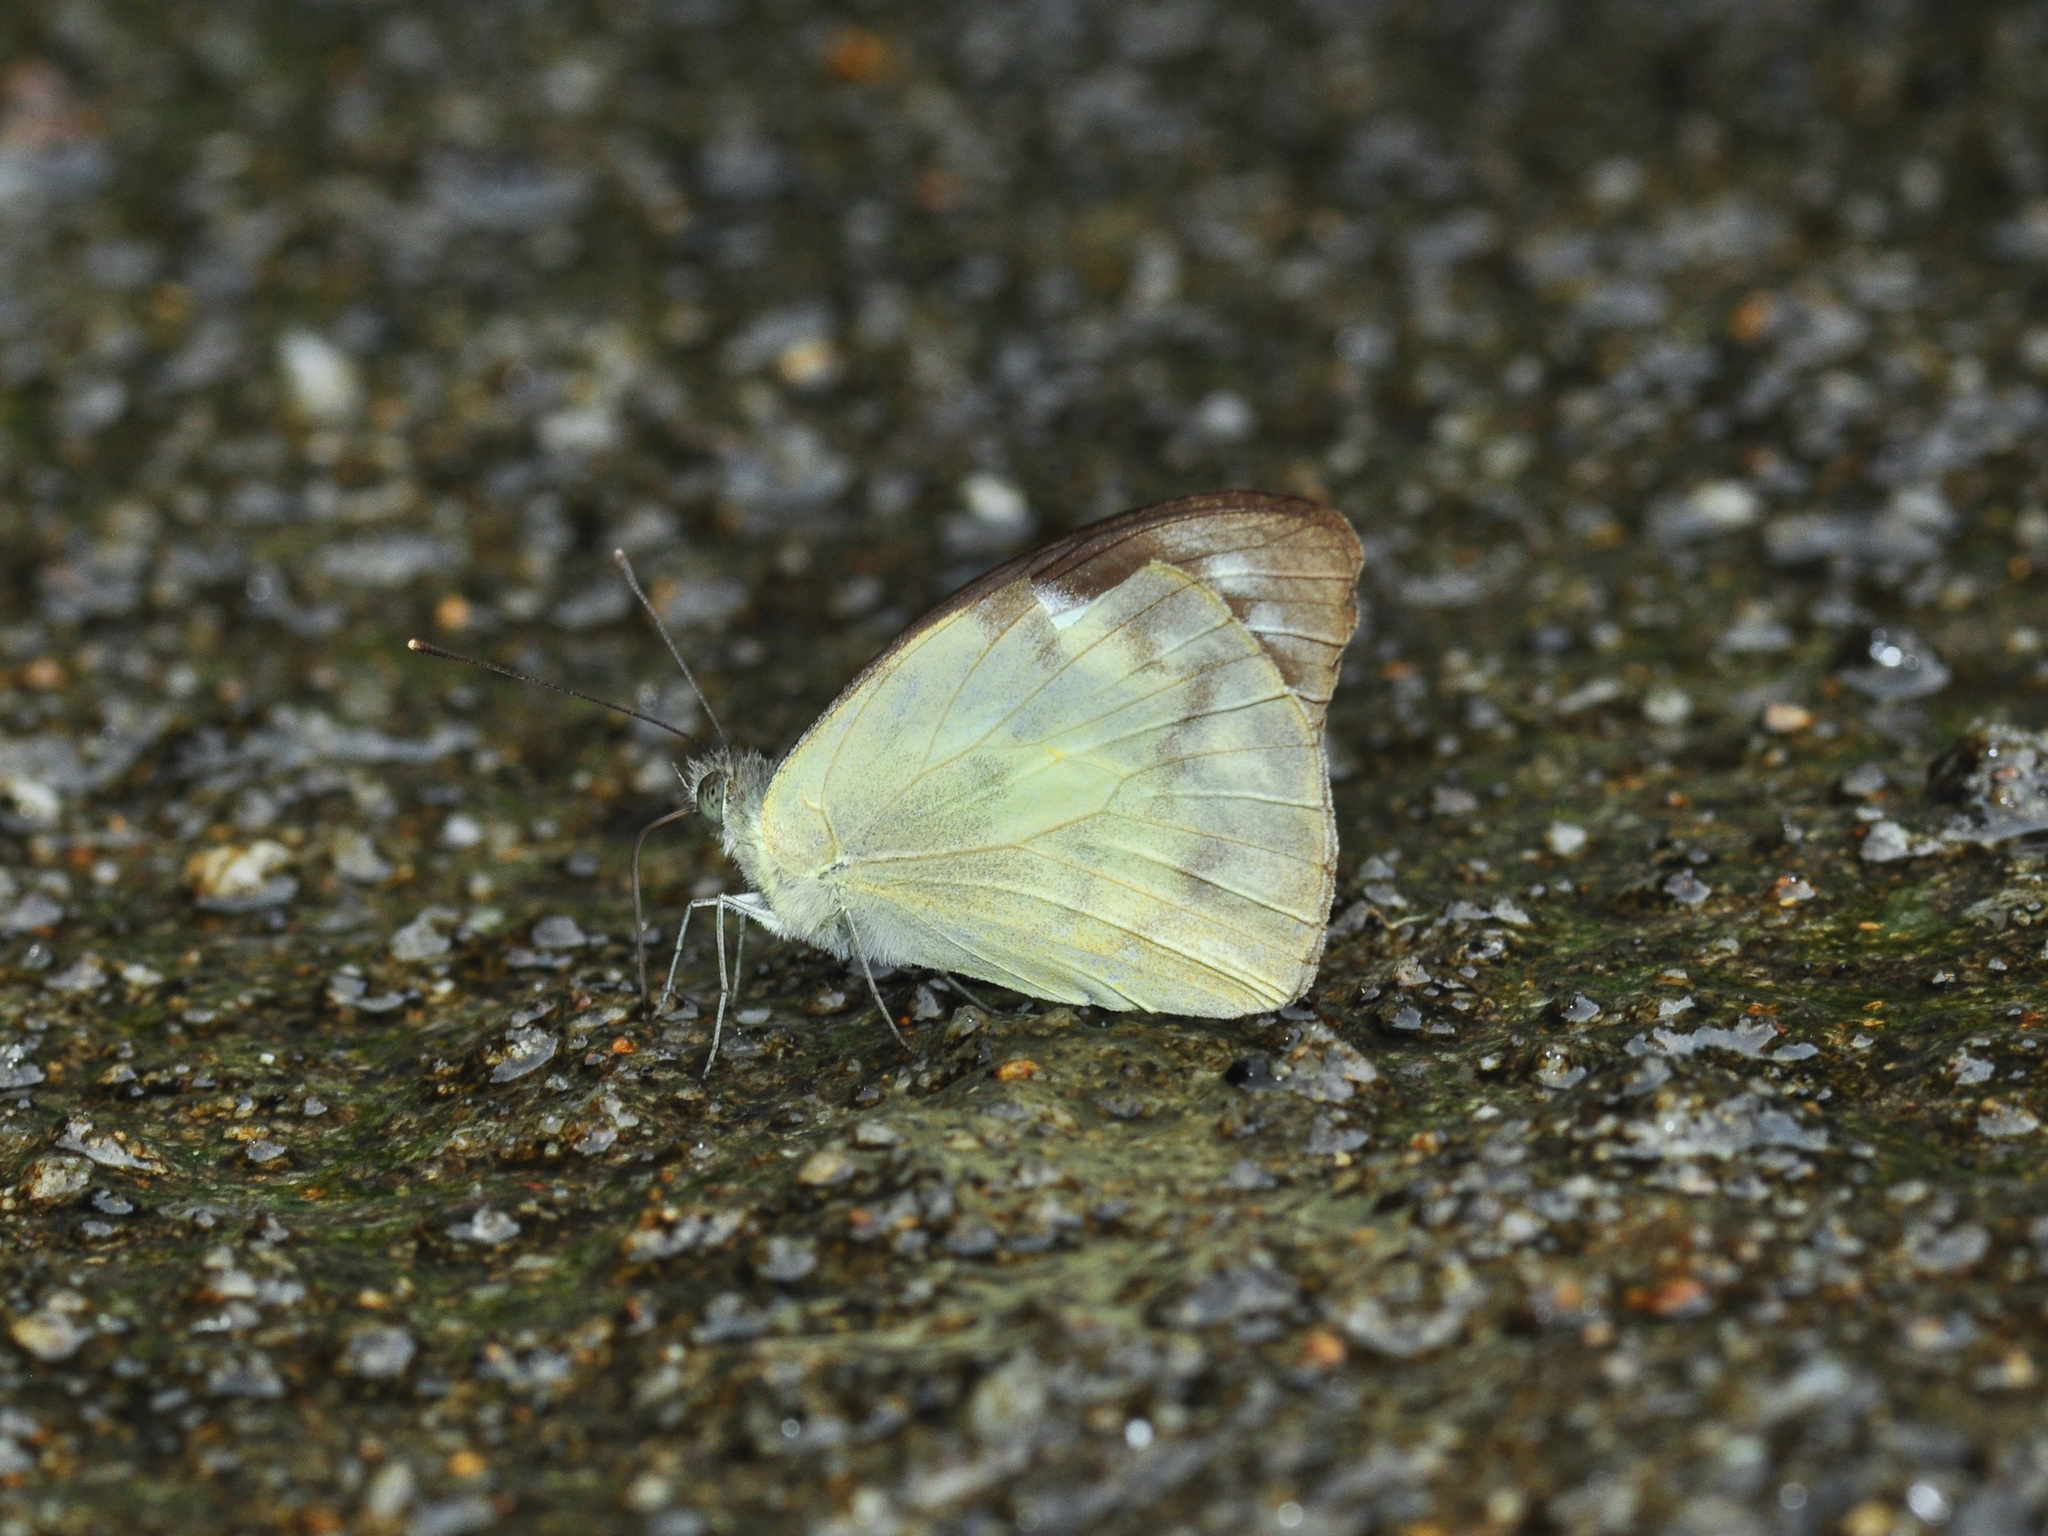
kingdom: Animalia
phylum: Arthropoda
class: Insecta
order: Lepidoptera
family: Pieridae
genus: Appias
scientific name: Appias pandione
